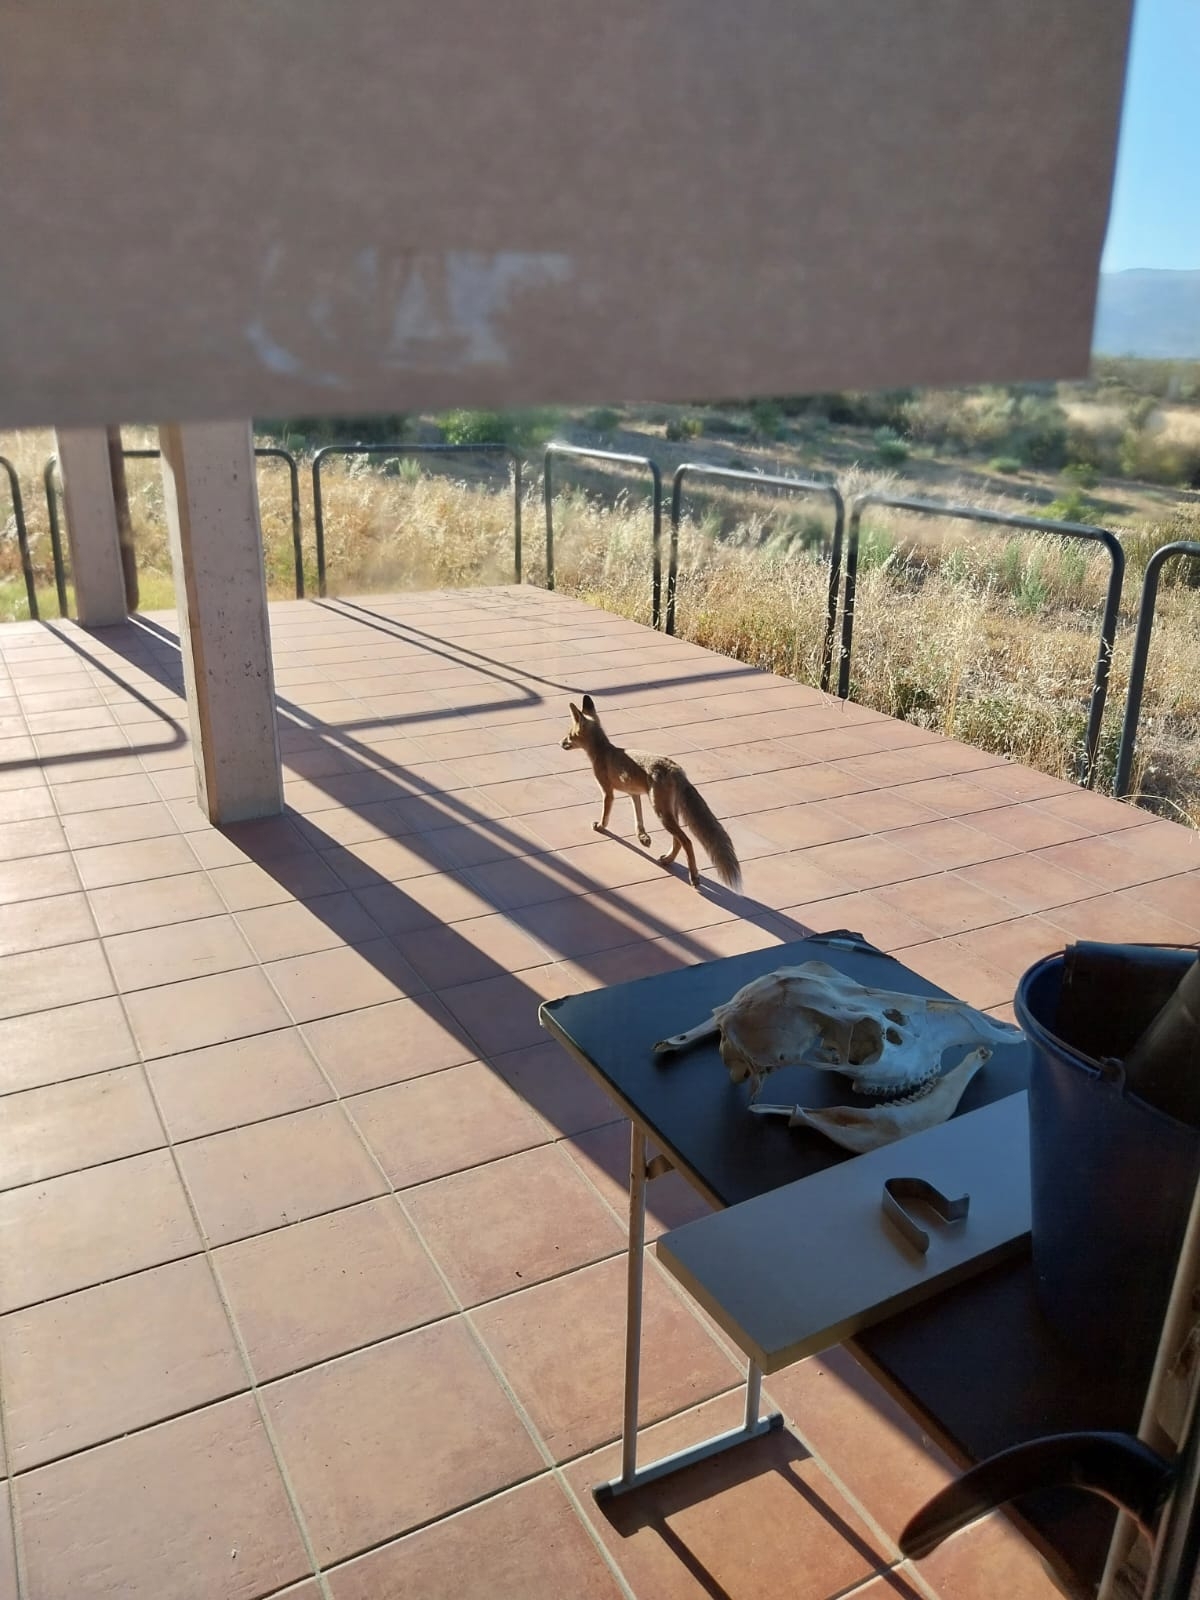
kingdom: Animalia
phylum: Chordata
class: Mammalia
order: Carnivora
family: Canidae
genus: Vulpes
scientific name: Vulpes vulpes
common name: Red fox
